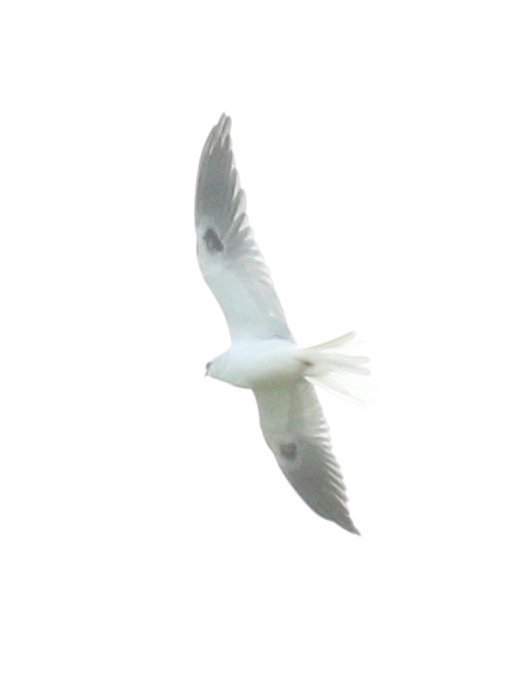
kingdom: Animalia
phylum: Chordata
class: Aves
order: Accipitriformes
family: Accipitridae
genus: Elanus
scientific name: Elanus leucurus
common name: White-tailed kite
